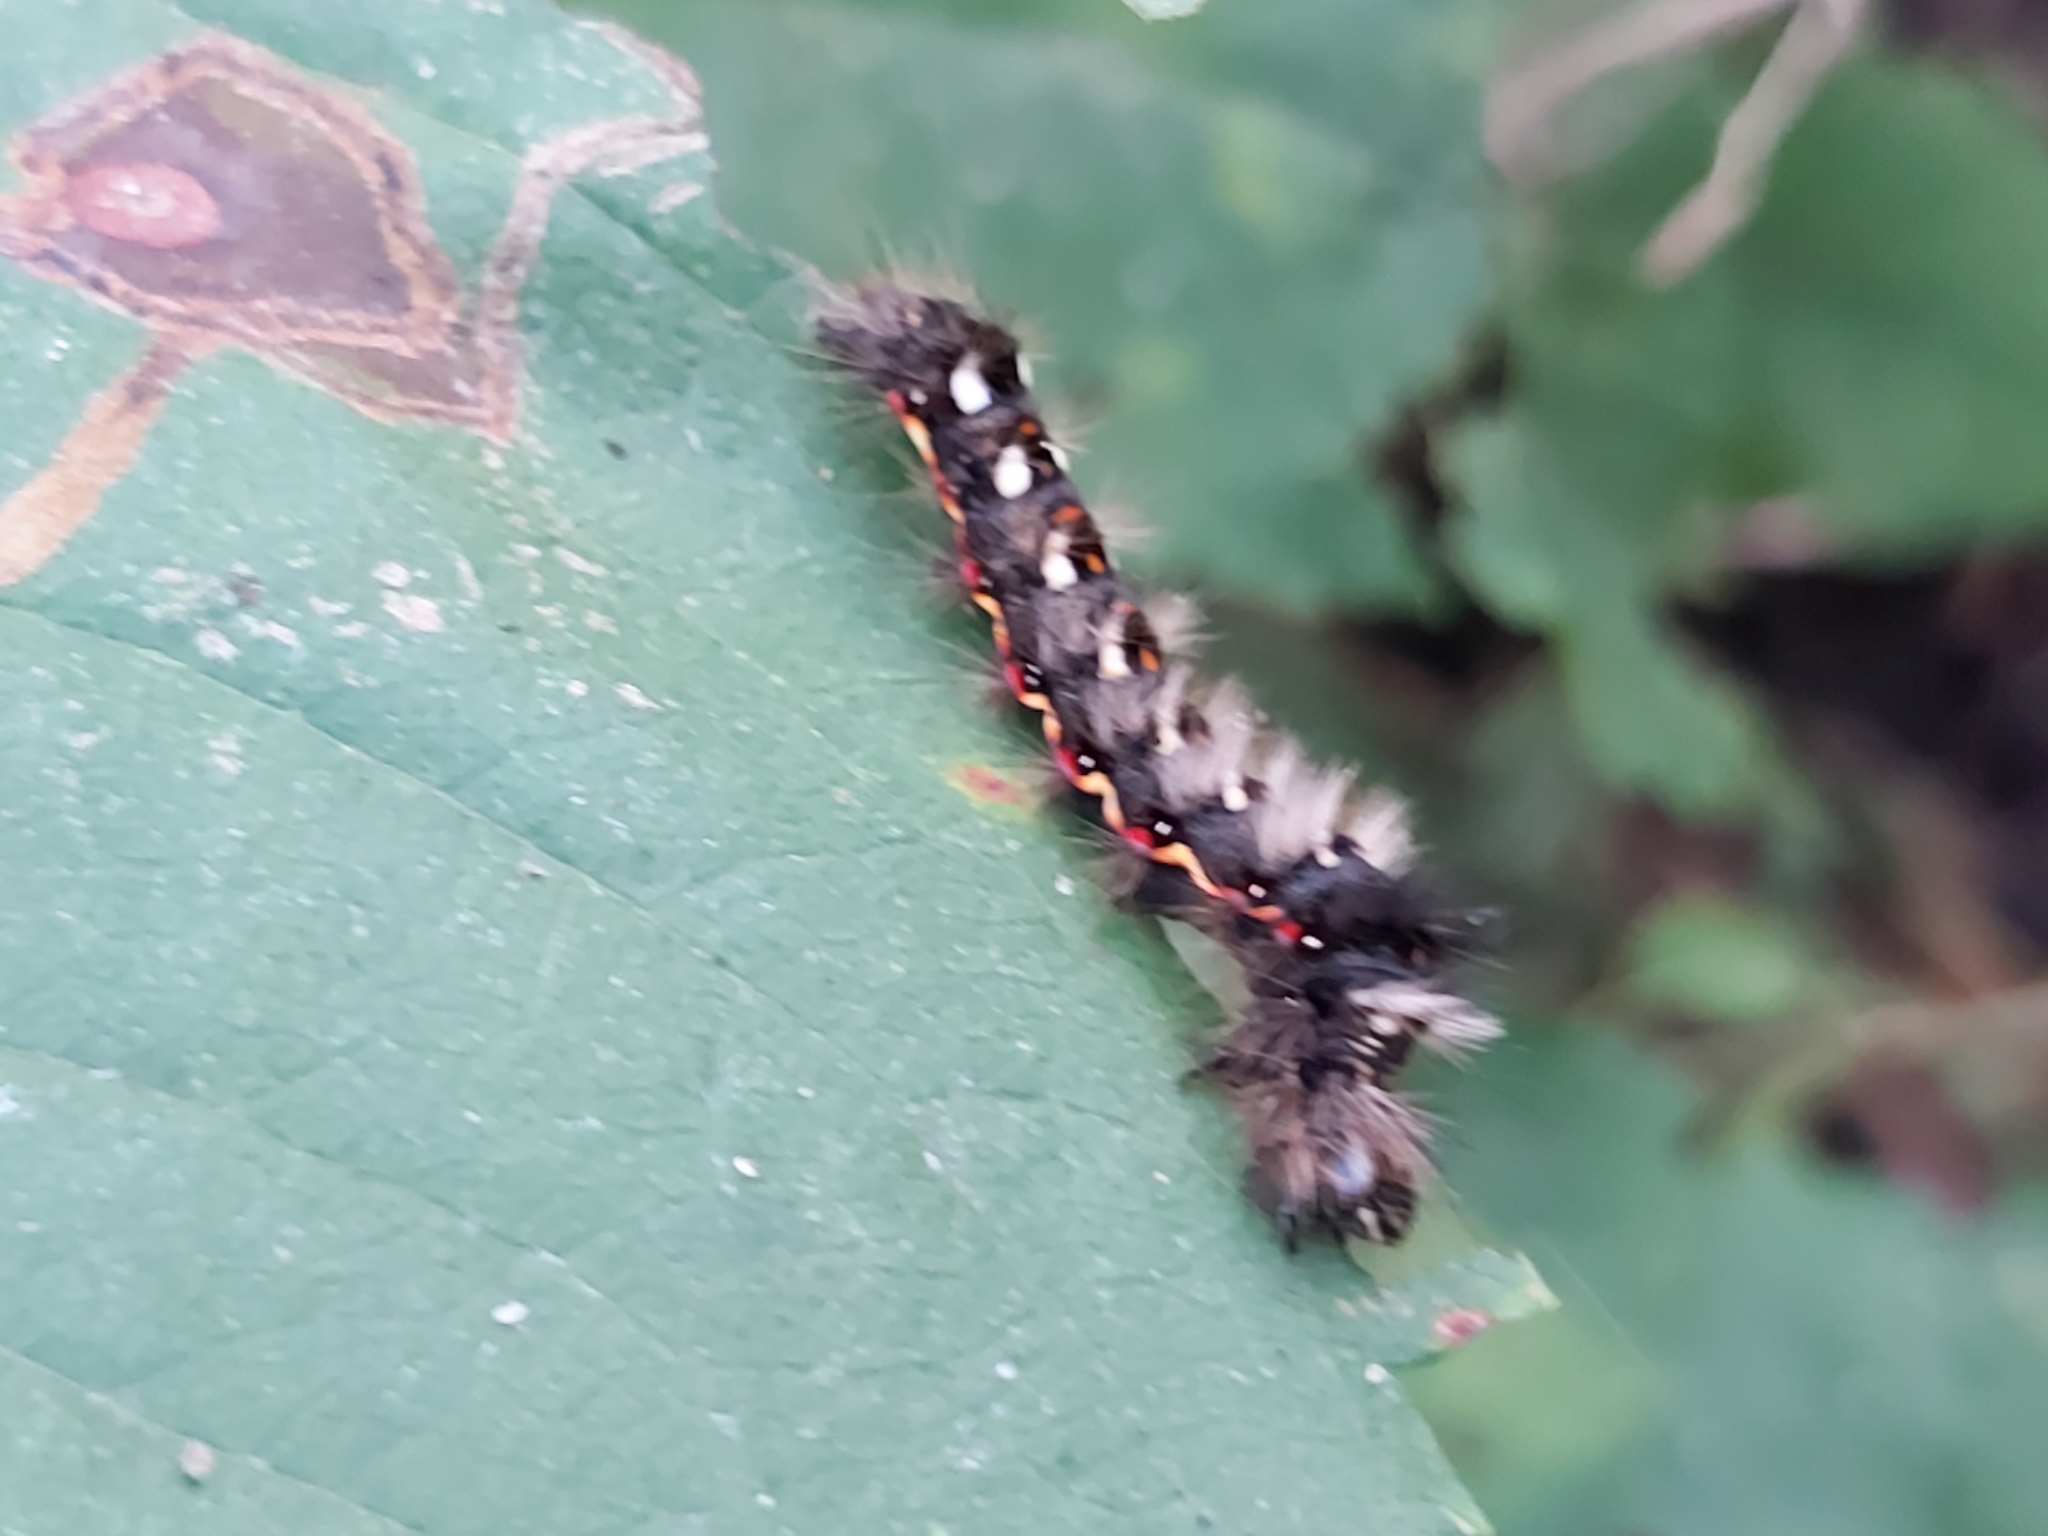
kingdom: Animalia
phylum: Arthropoda
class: Insecta
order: Lepidoptera
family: Noctuidae
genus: Acronicta
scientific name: Acronicta rumicis
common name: Knot grass
